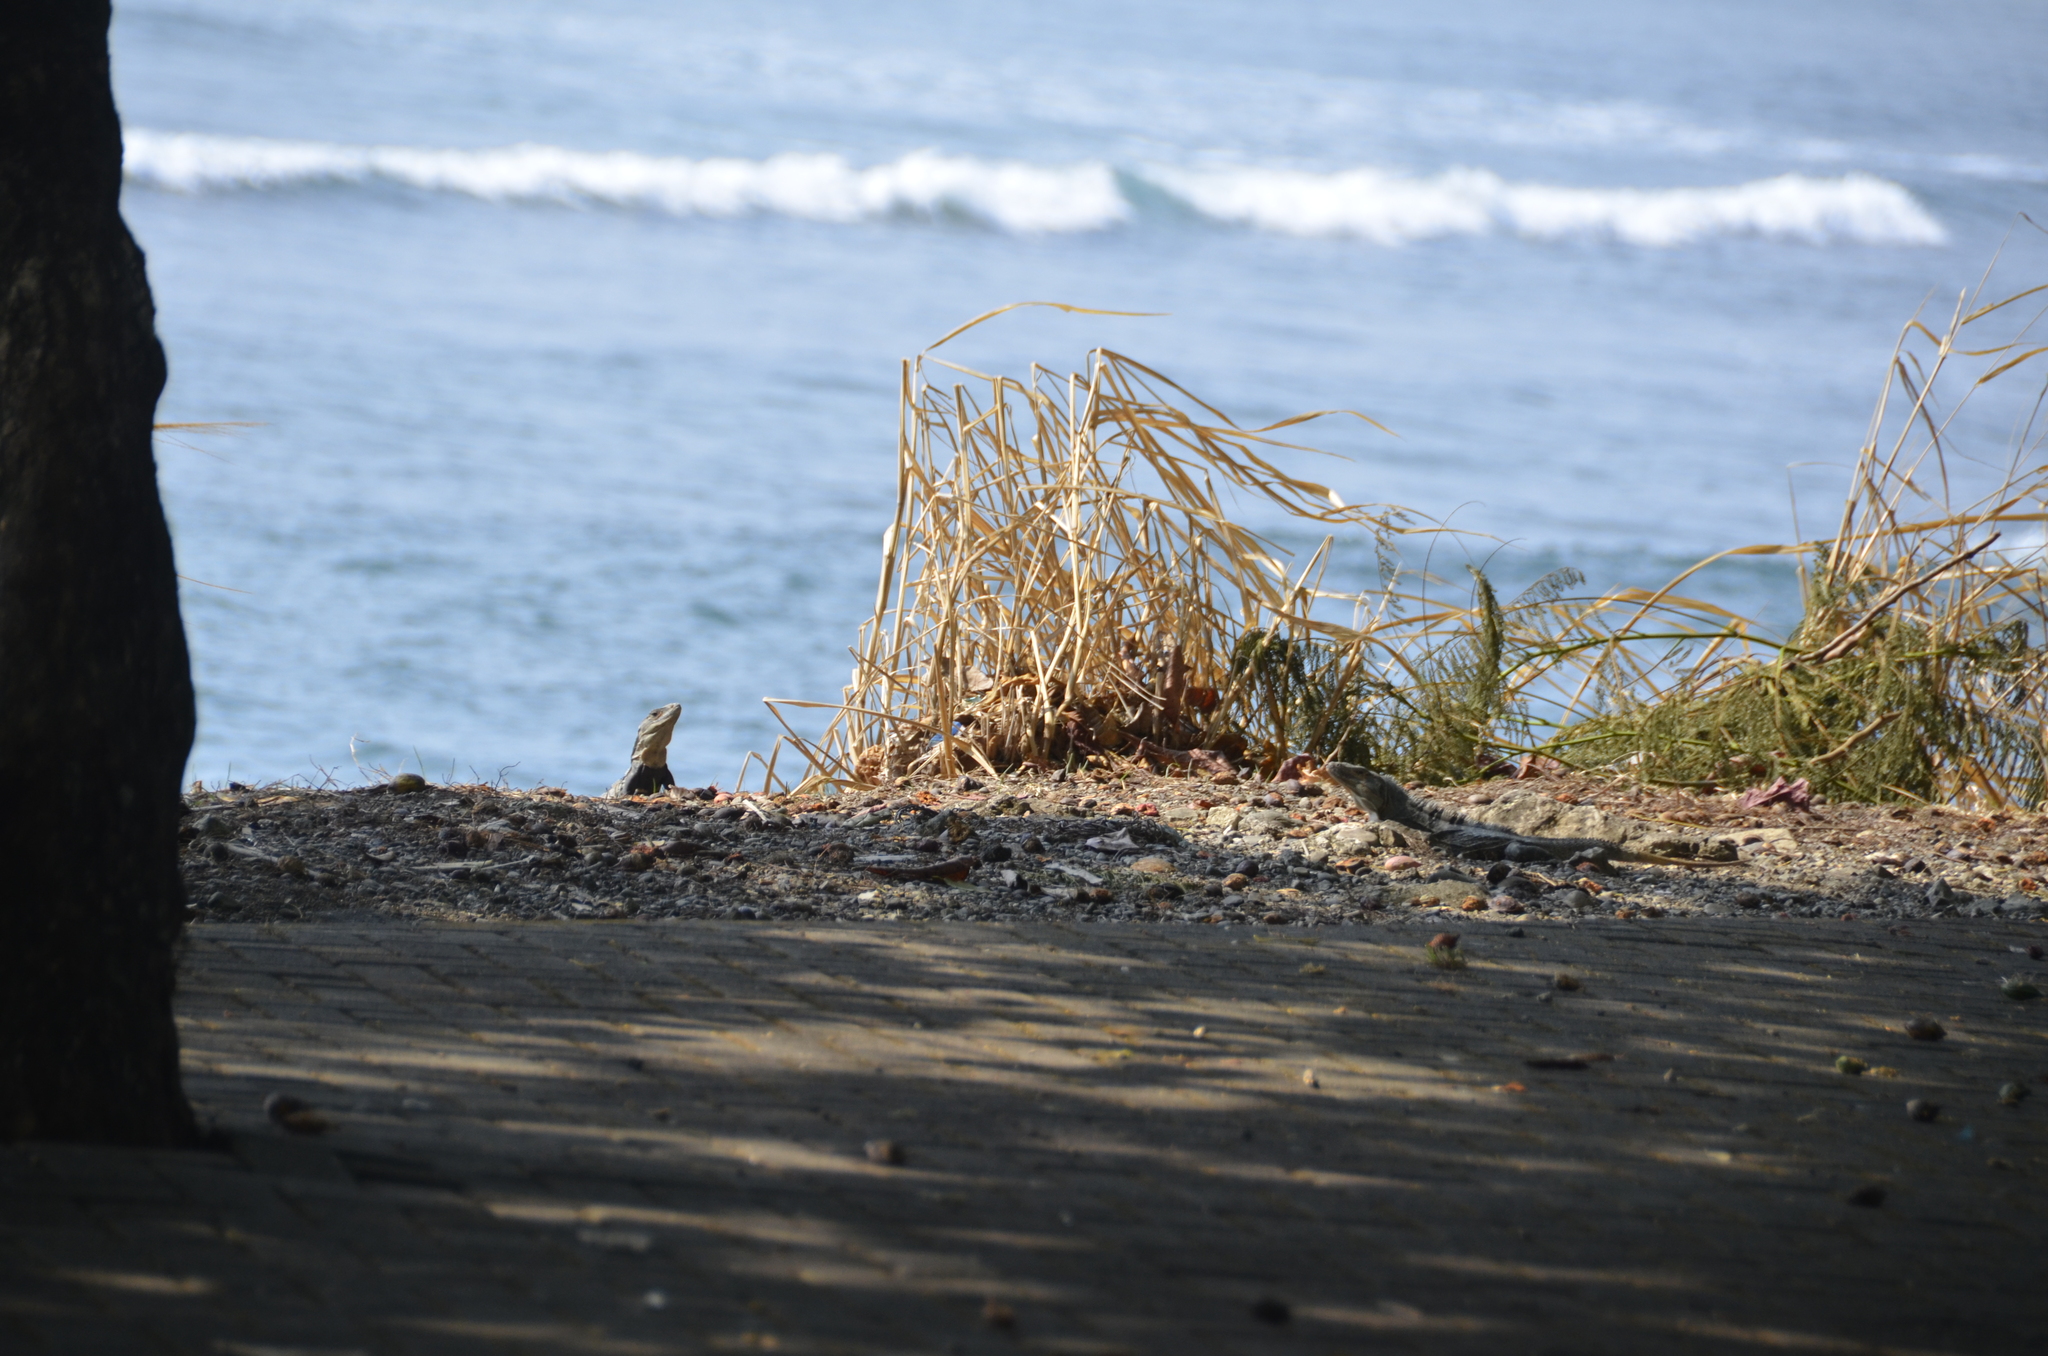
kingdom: Animalia
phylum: Chordata
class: Squamata
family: Iguanidae
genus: Ctenosaura
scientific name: Ctenosaura similis
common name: Black spiny-tailed iguana
